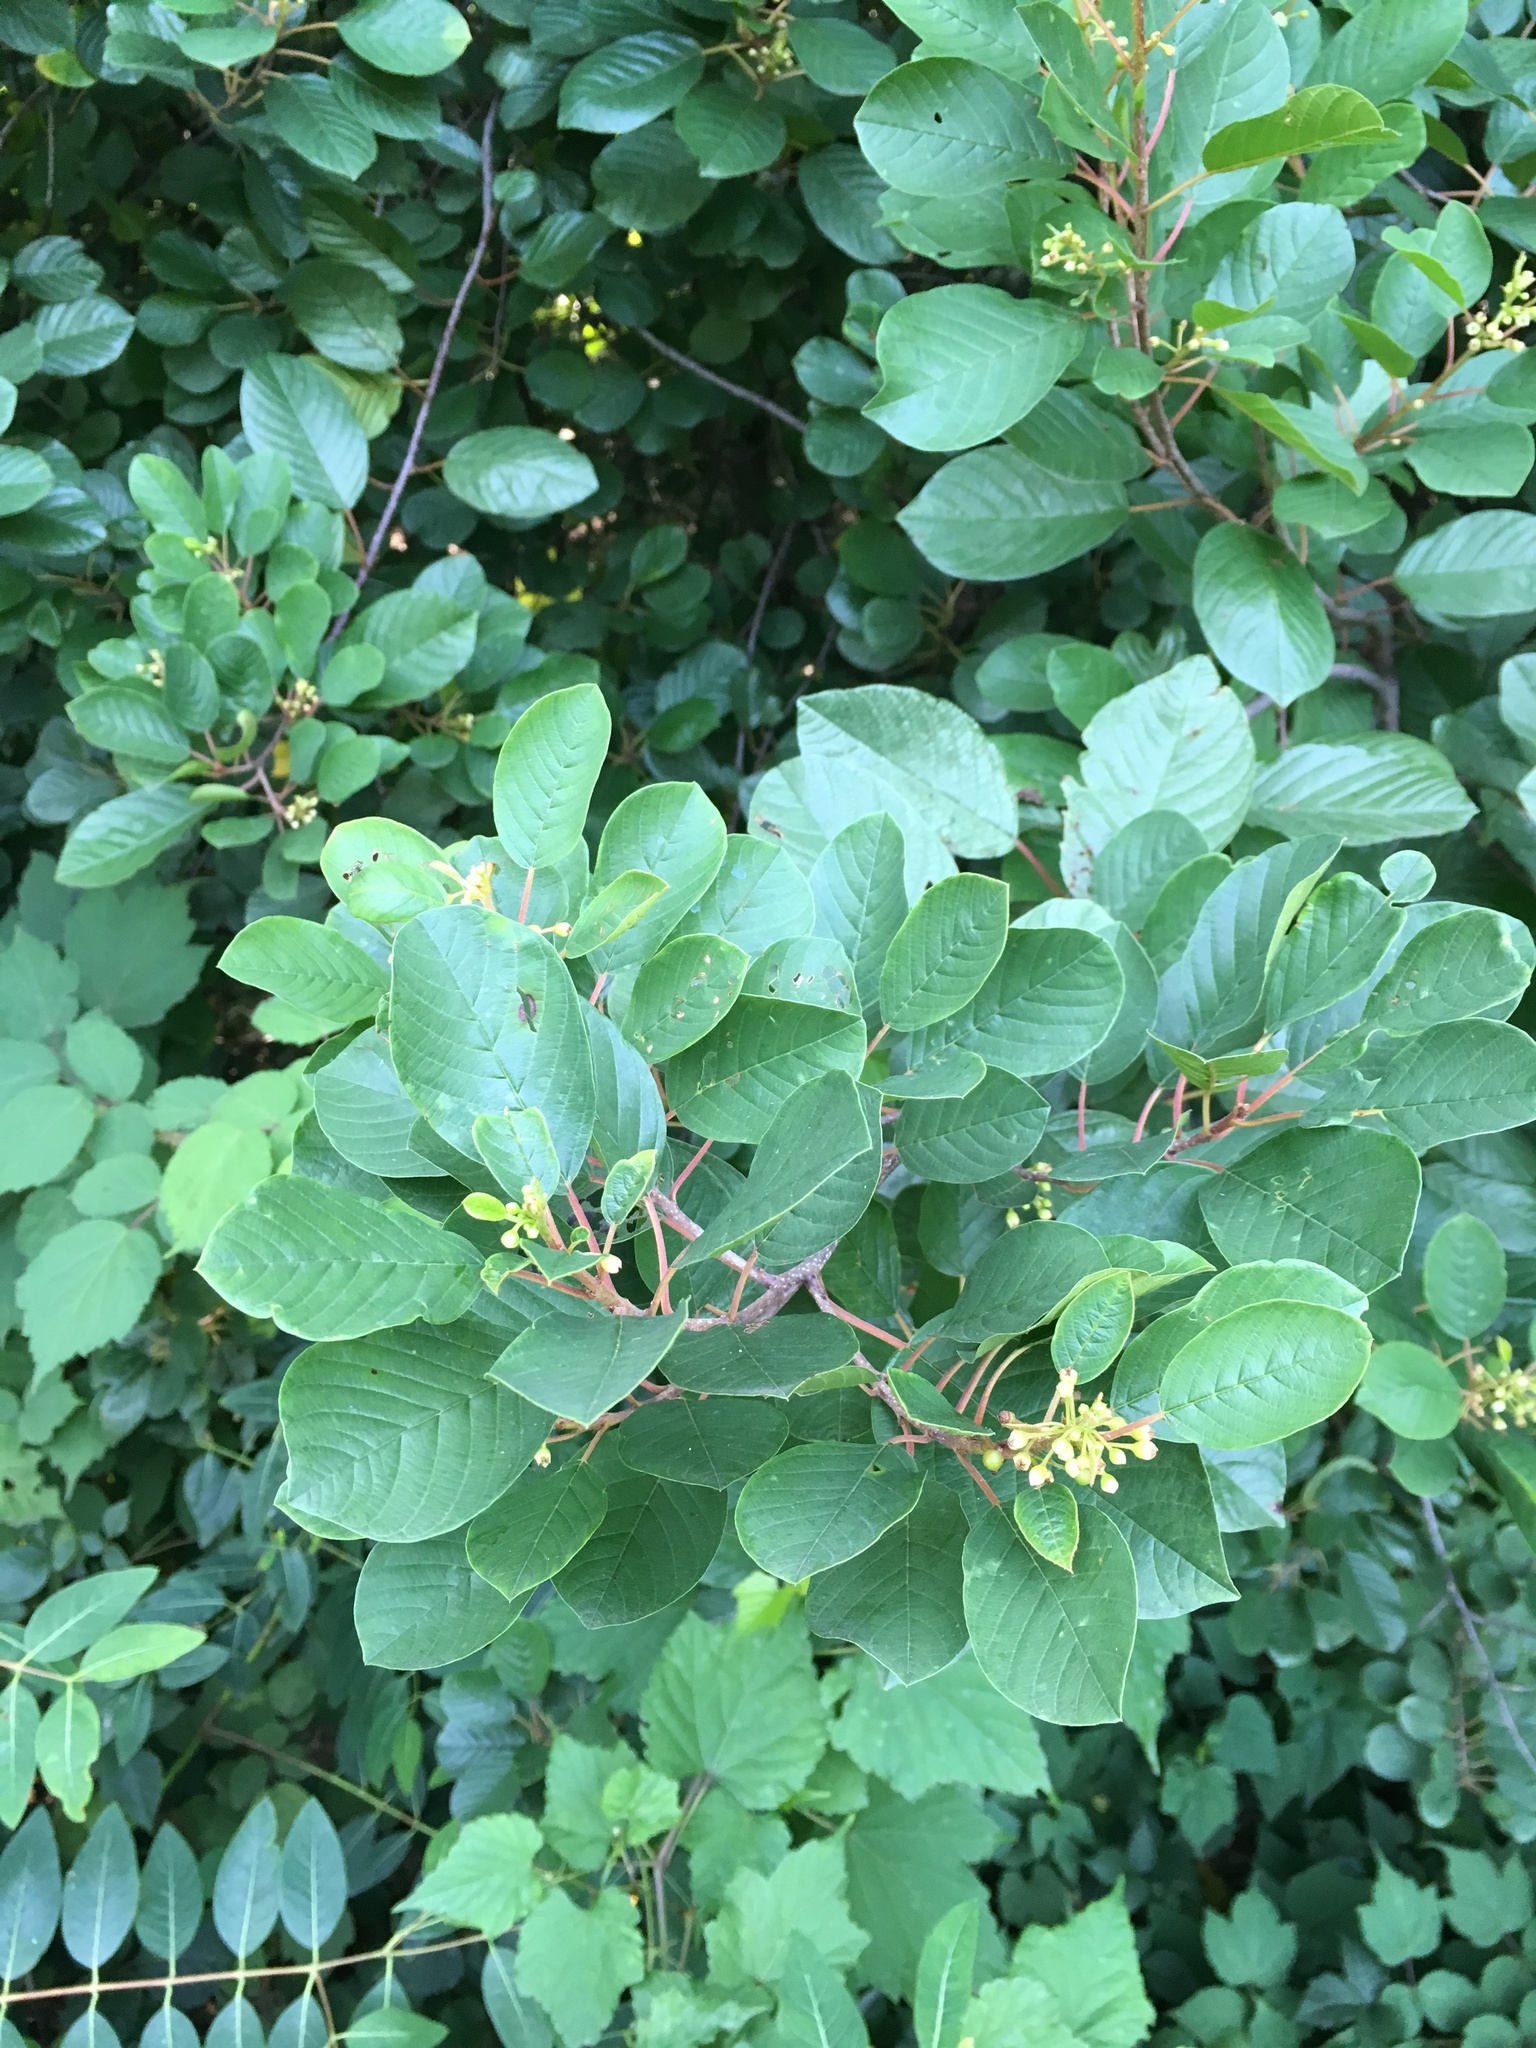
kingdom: Plantae
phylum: Tracheophyta
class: Magnoliopsida
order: Rosales
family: Rhamnaceae
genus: Frangula
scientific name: Frangula alnus
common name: Alder buckthorn
